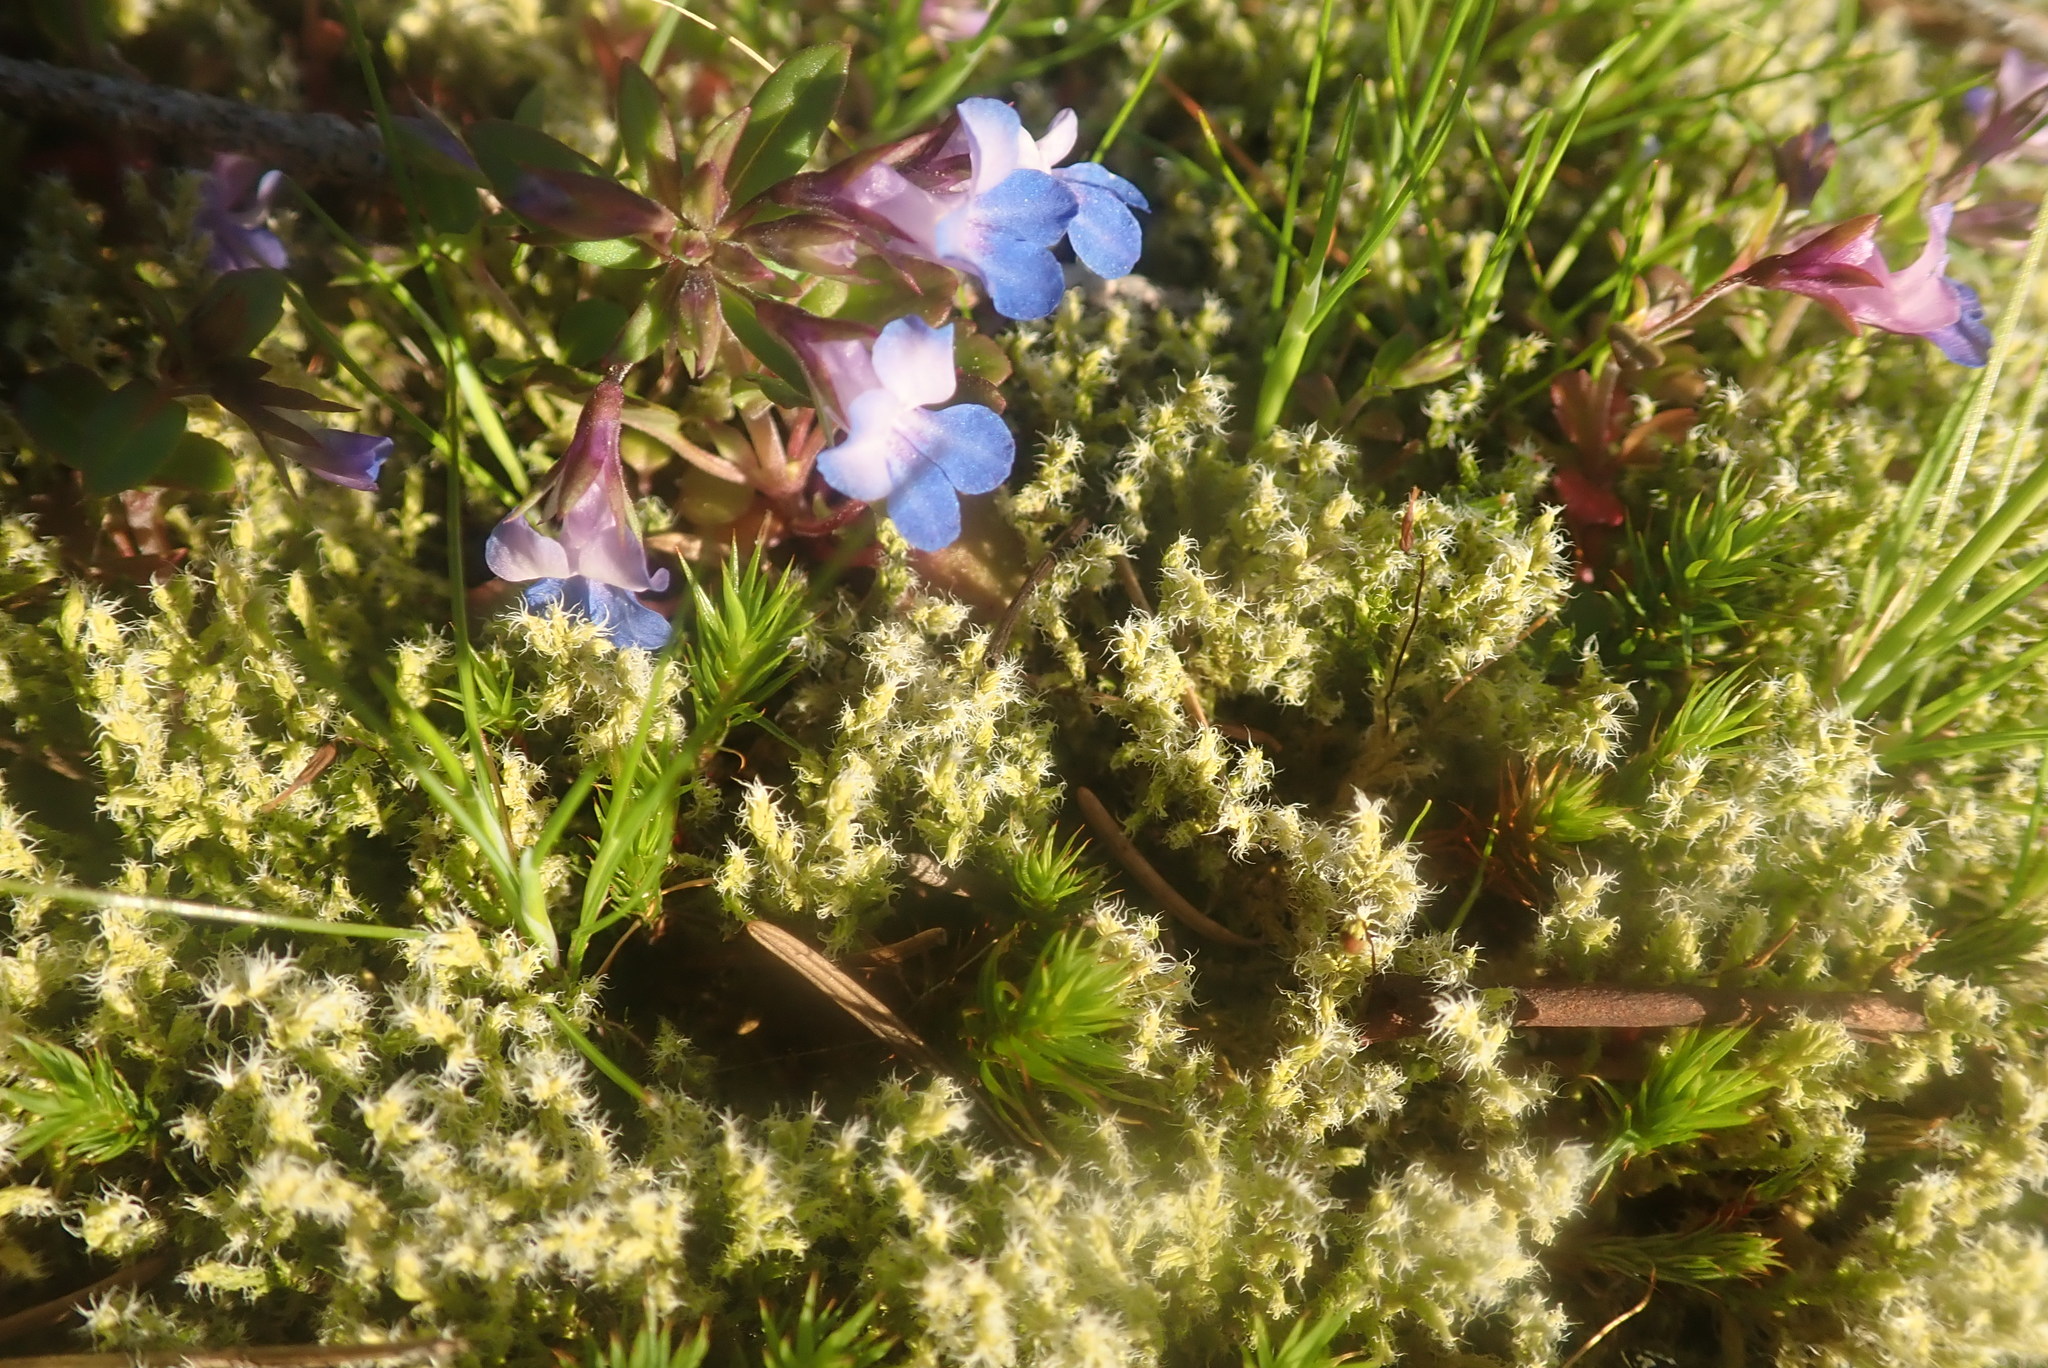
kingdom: Plantae
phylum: Tracheophyta
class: Magnoliopsida
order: Lamiales
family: Plantaginaceae
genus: Collinsia
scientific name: Collinsia parviflora
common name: Blue-lips
